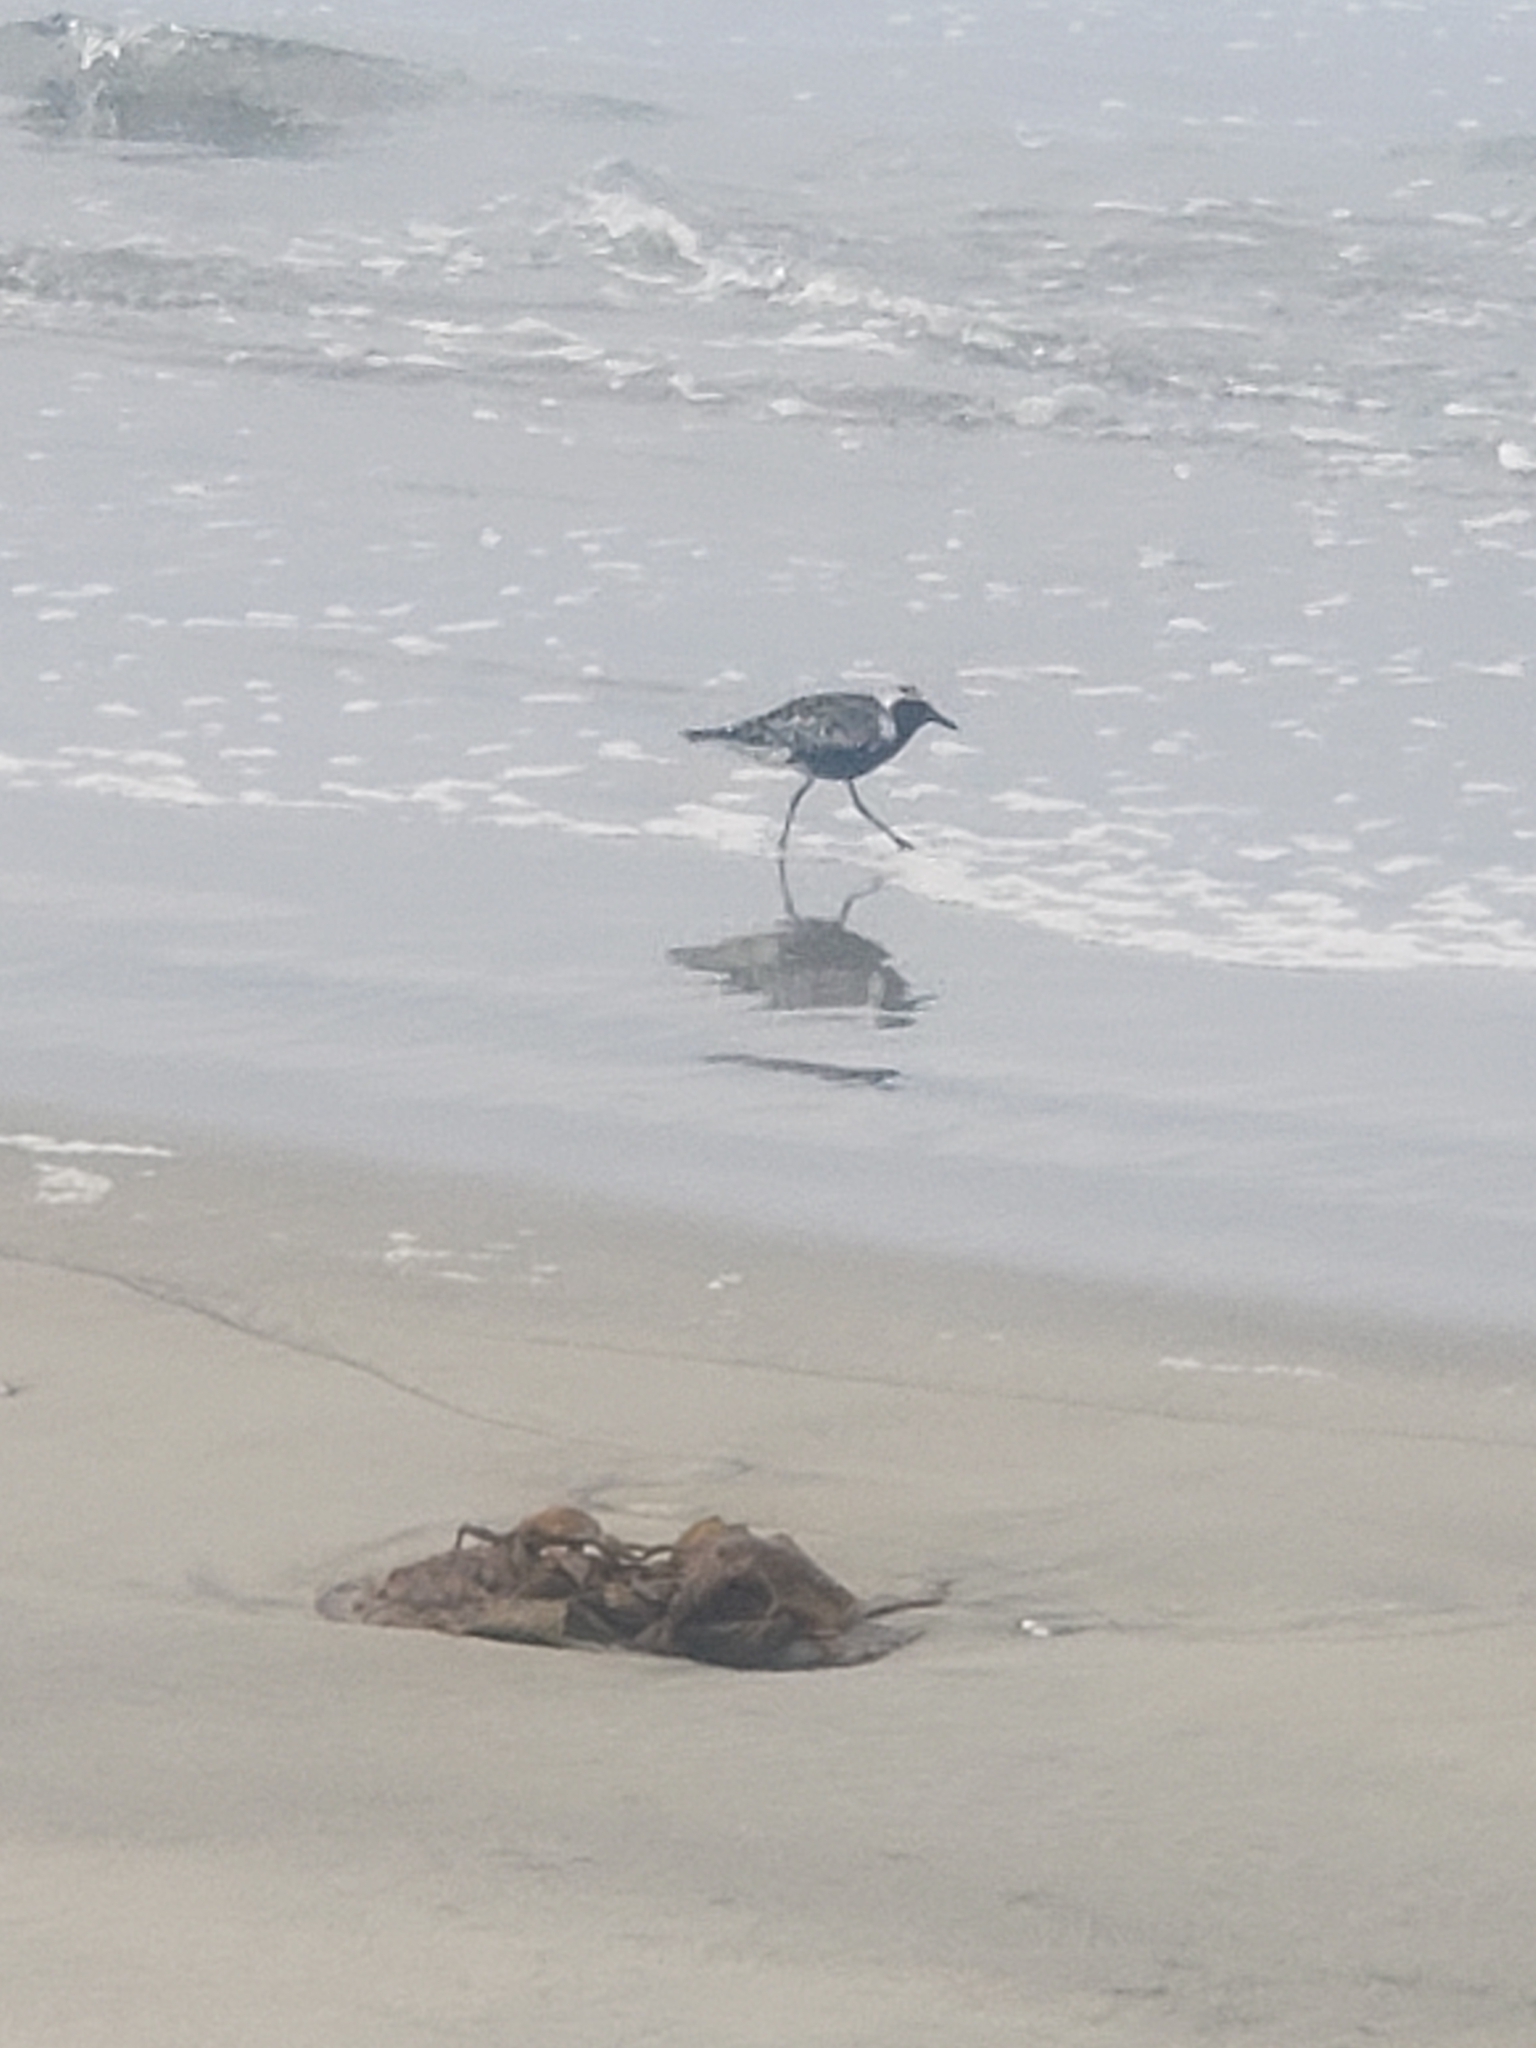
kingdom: Animalia
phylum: Chordata
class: Aves
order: Charadriiformes
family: Charadriidae
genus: Pluvialis
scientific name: Pluvialis squatarola
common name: Grey plover
